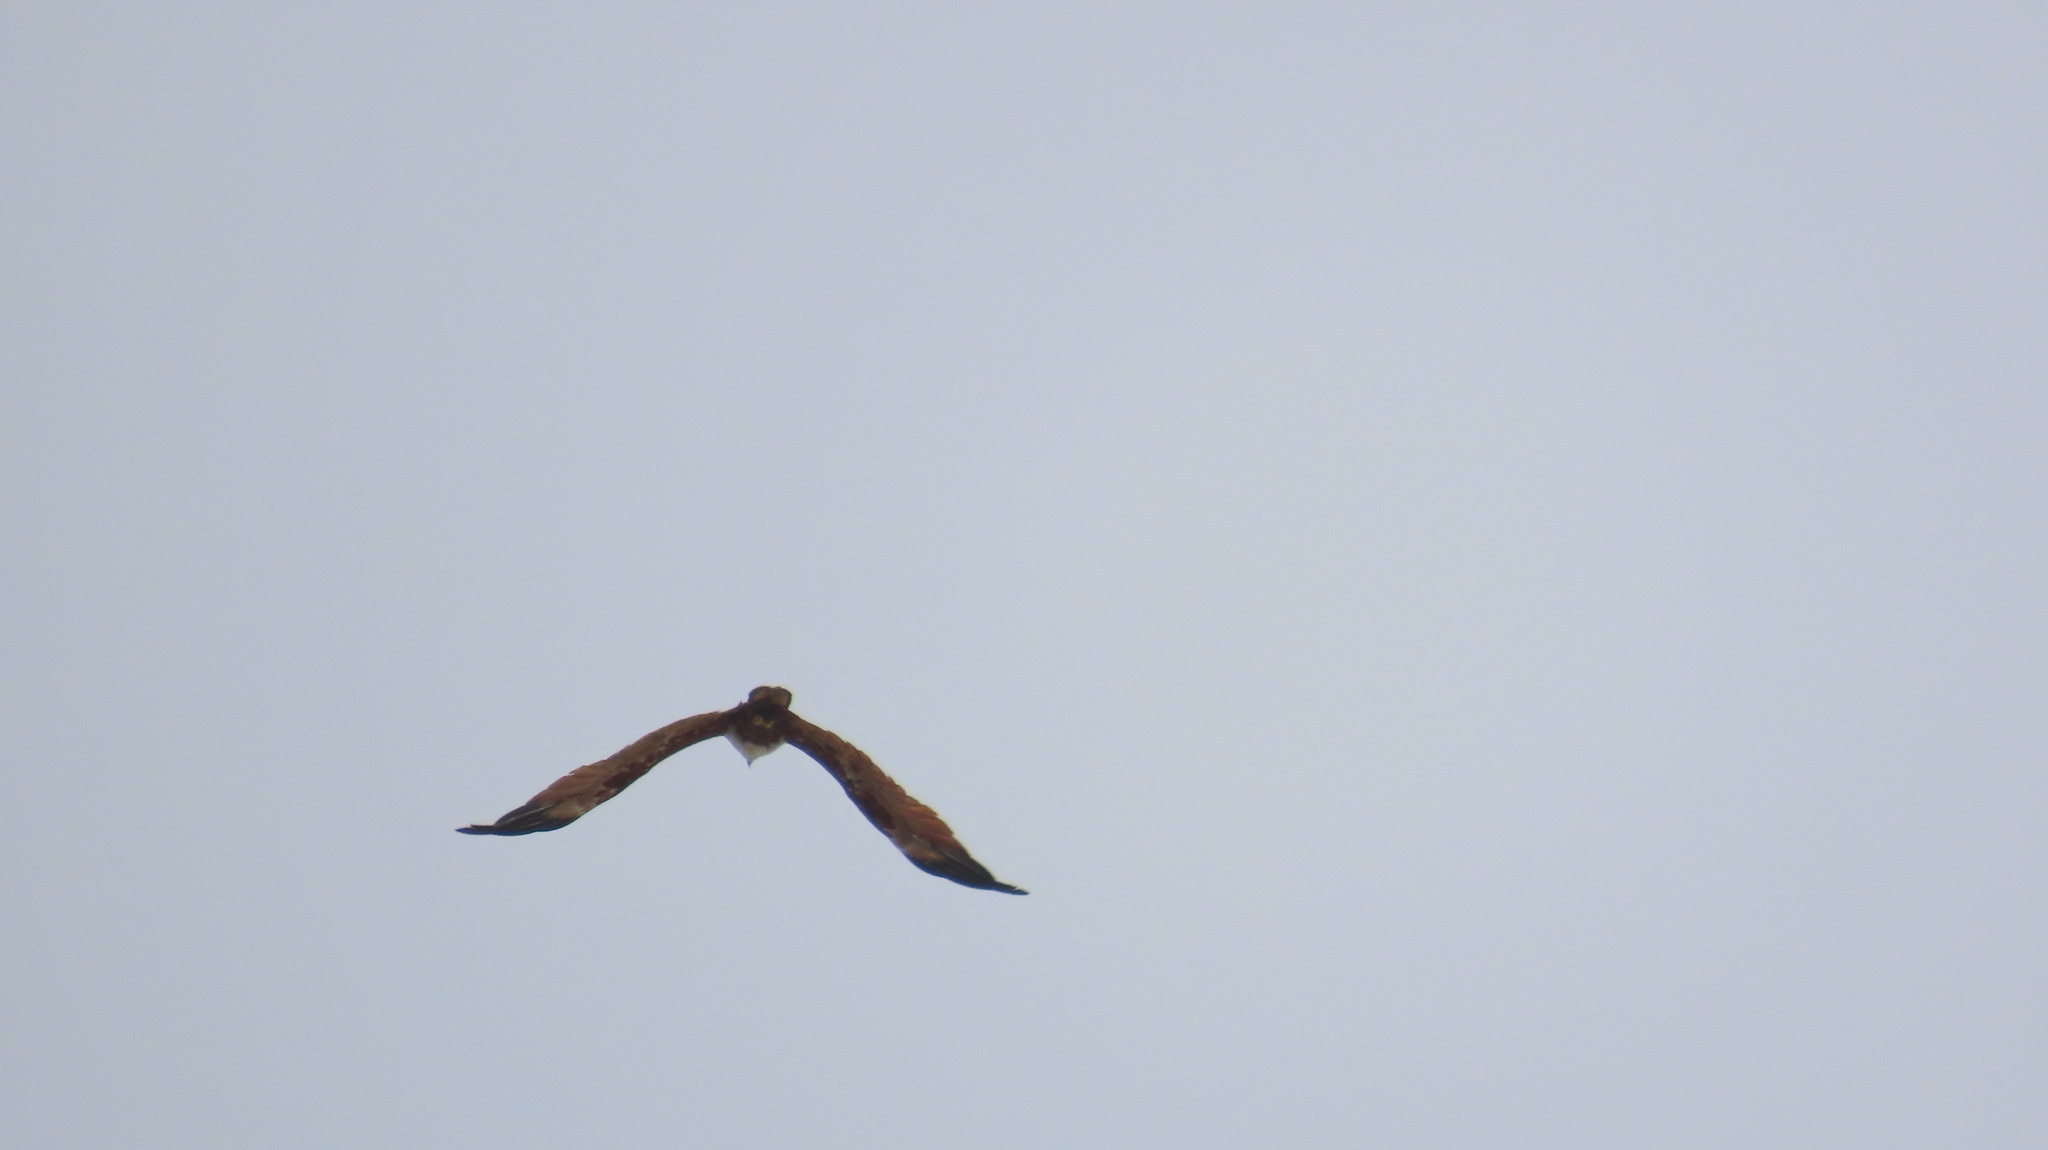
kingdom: Animalia
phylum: Chordata
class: Aves
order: Accipitriformes
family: Accipitridae
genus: Haliastur
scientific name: Haliastur indus
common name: Brahminy kite
